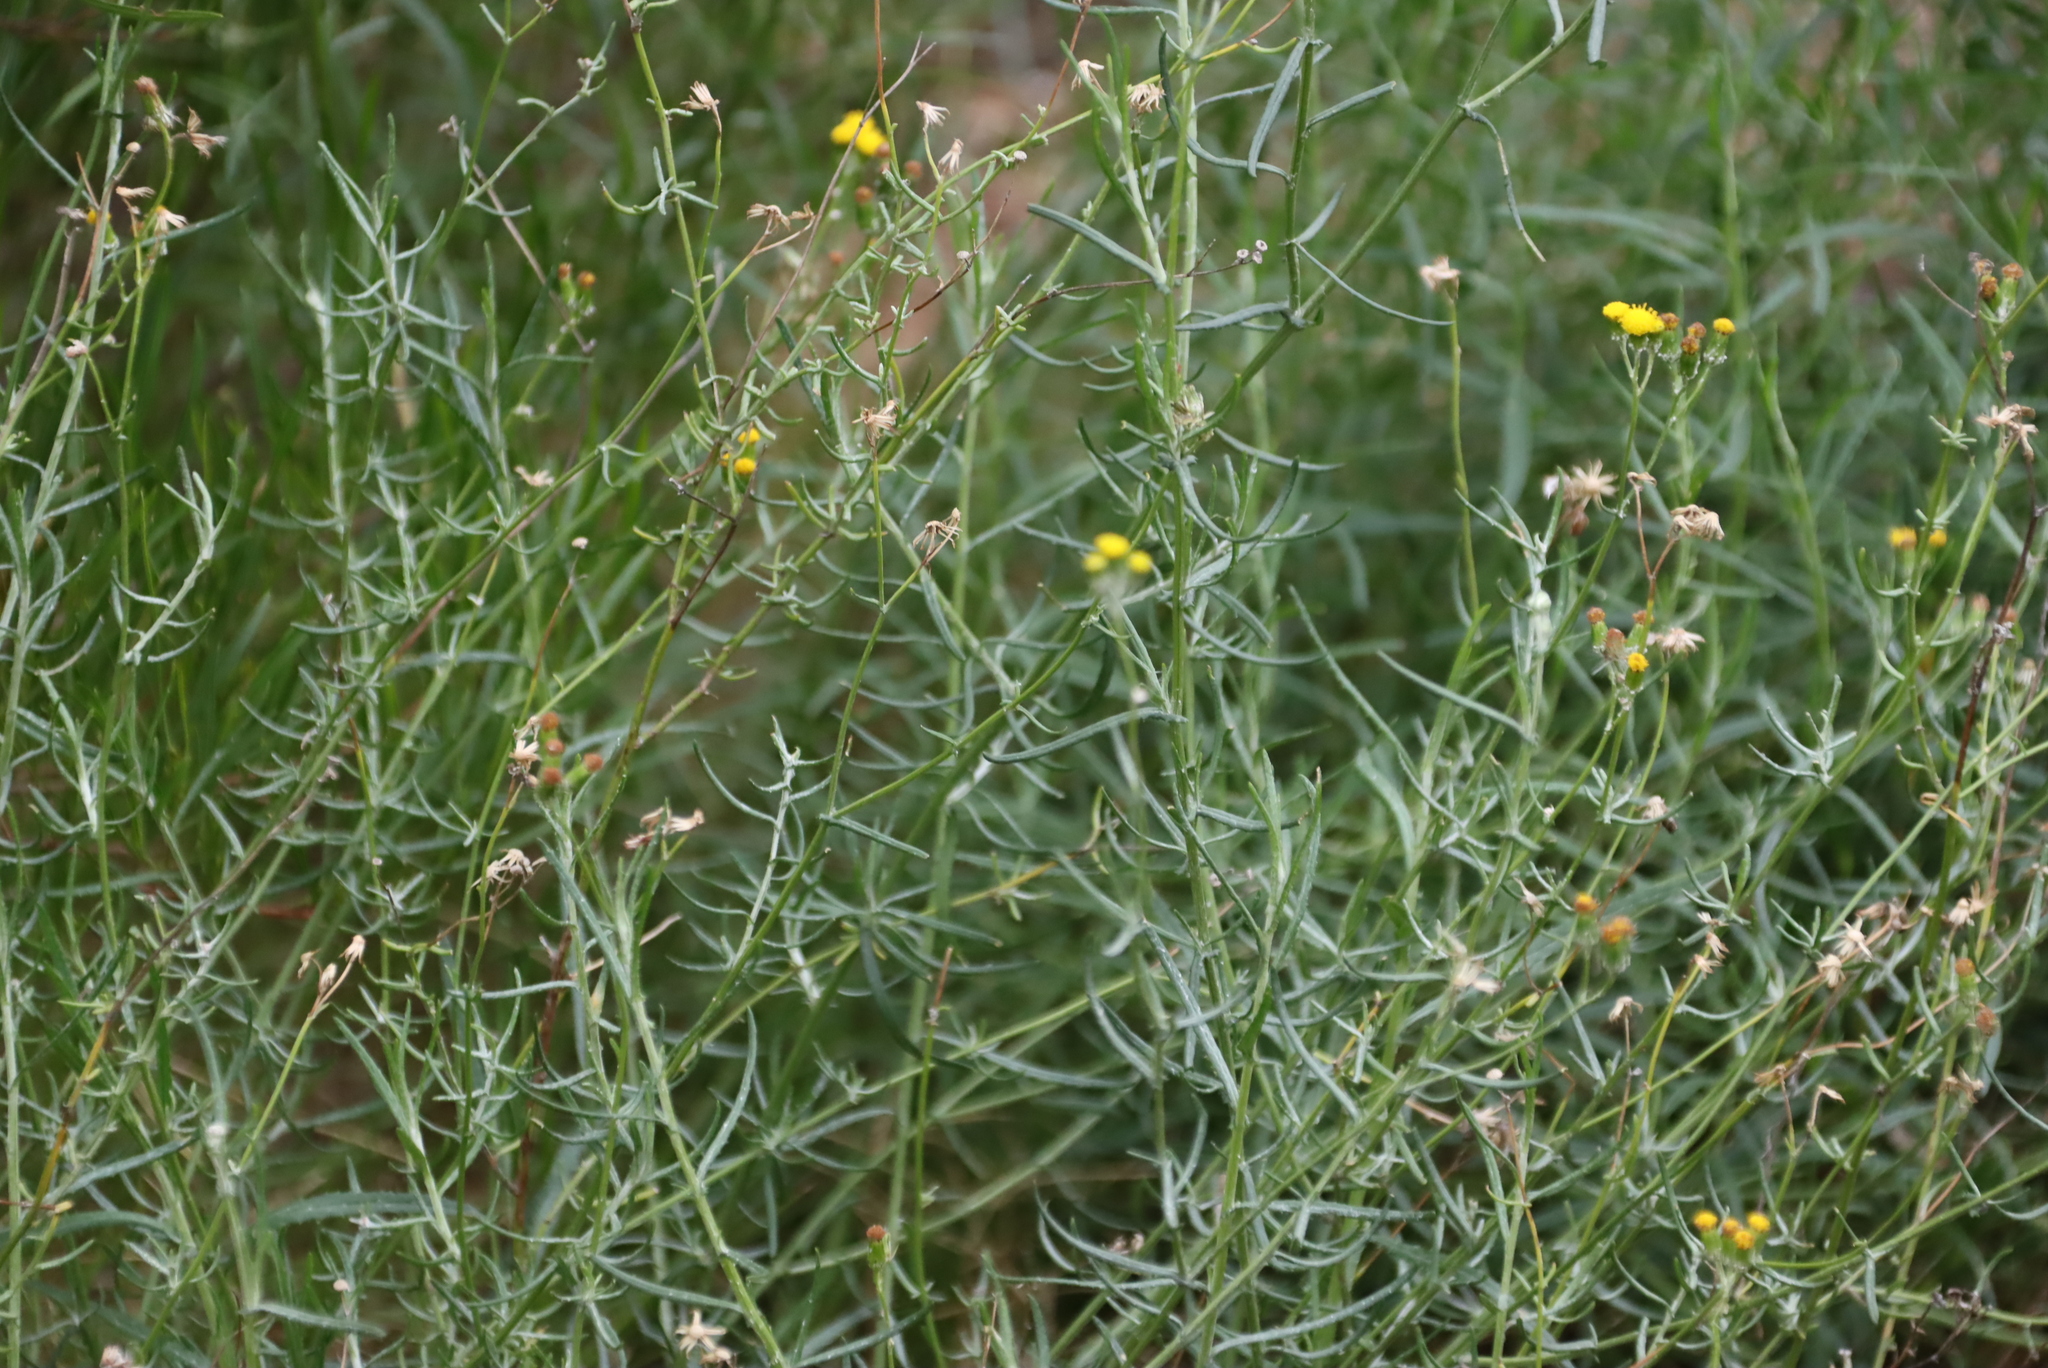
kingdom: Plantae
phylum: Tracheophyta
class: Magnoliopsida
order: Asterales
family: Asteraceae
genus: Senecio
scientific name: Senecio niveus
